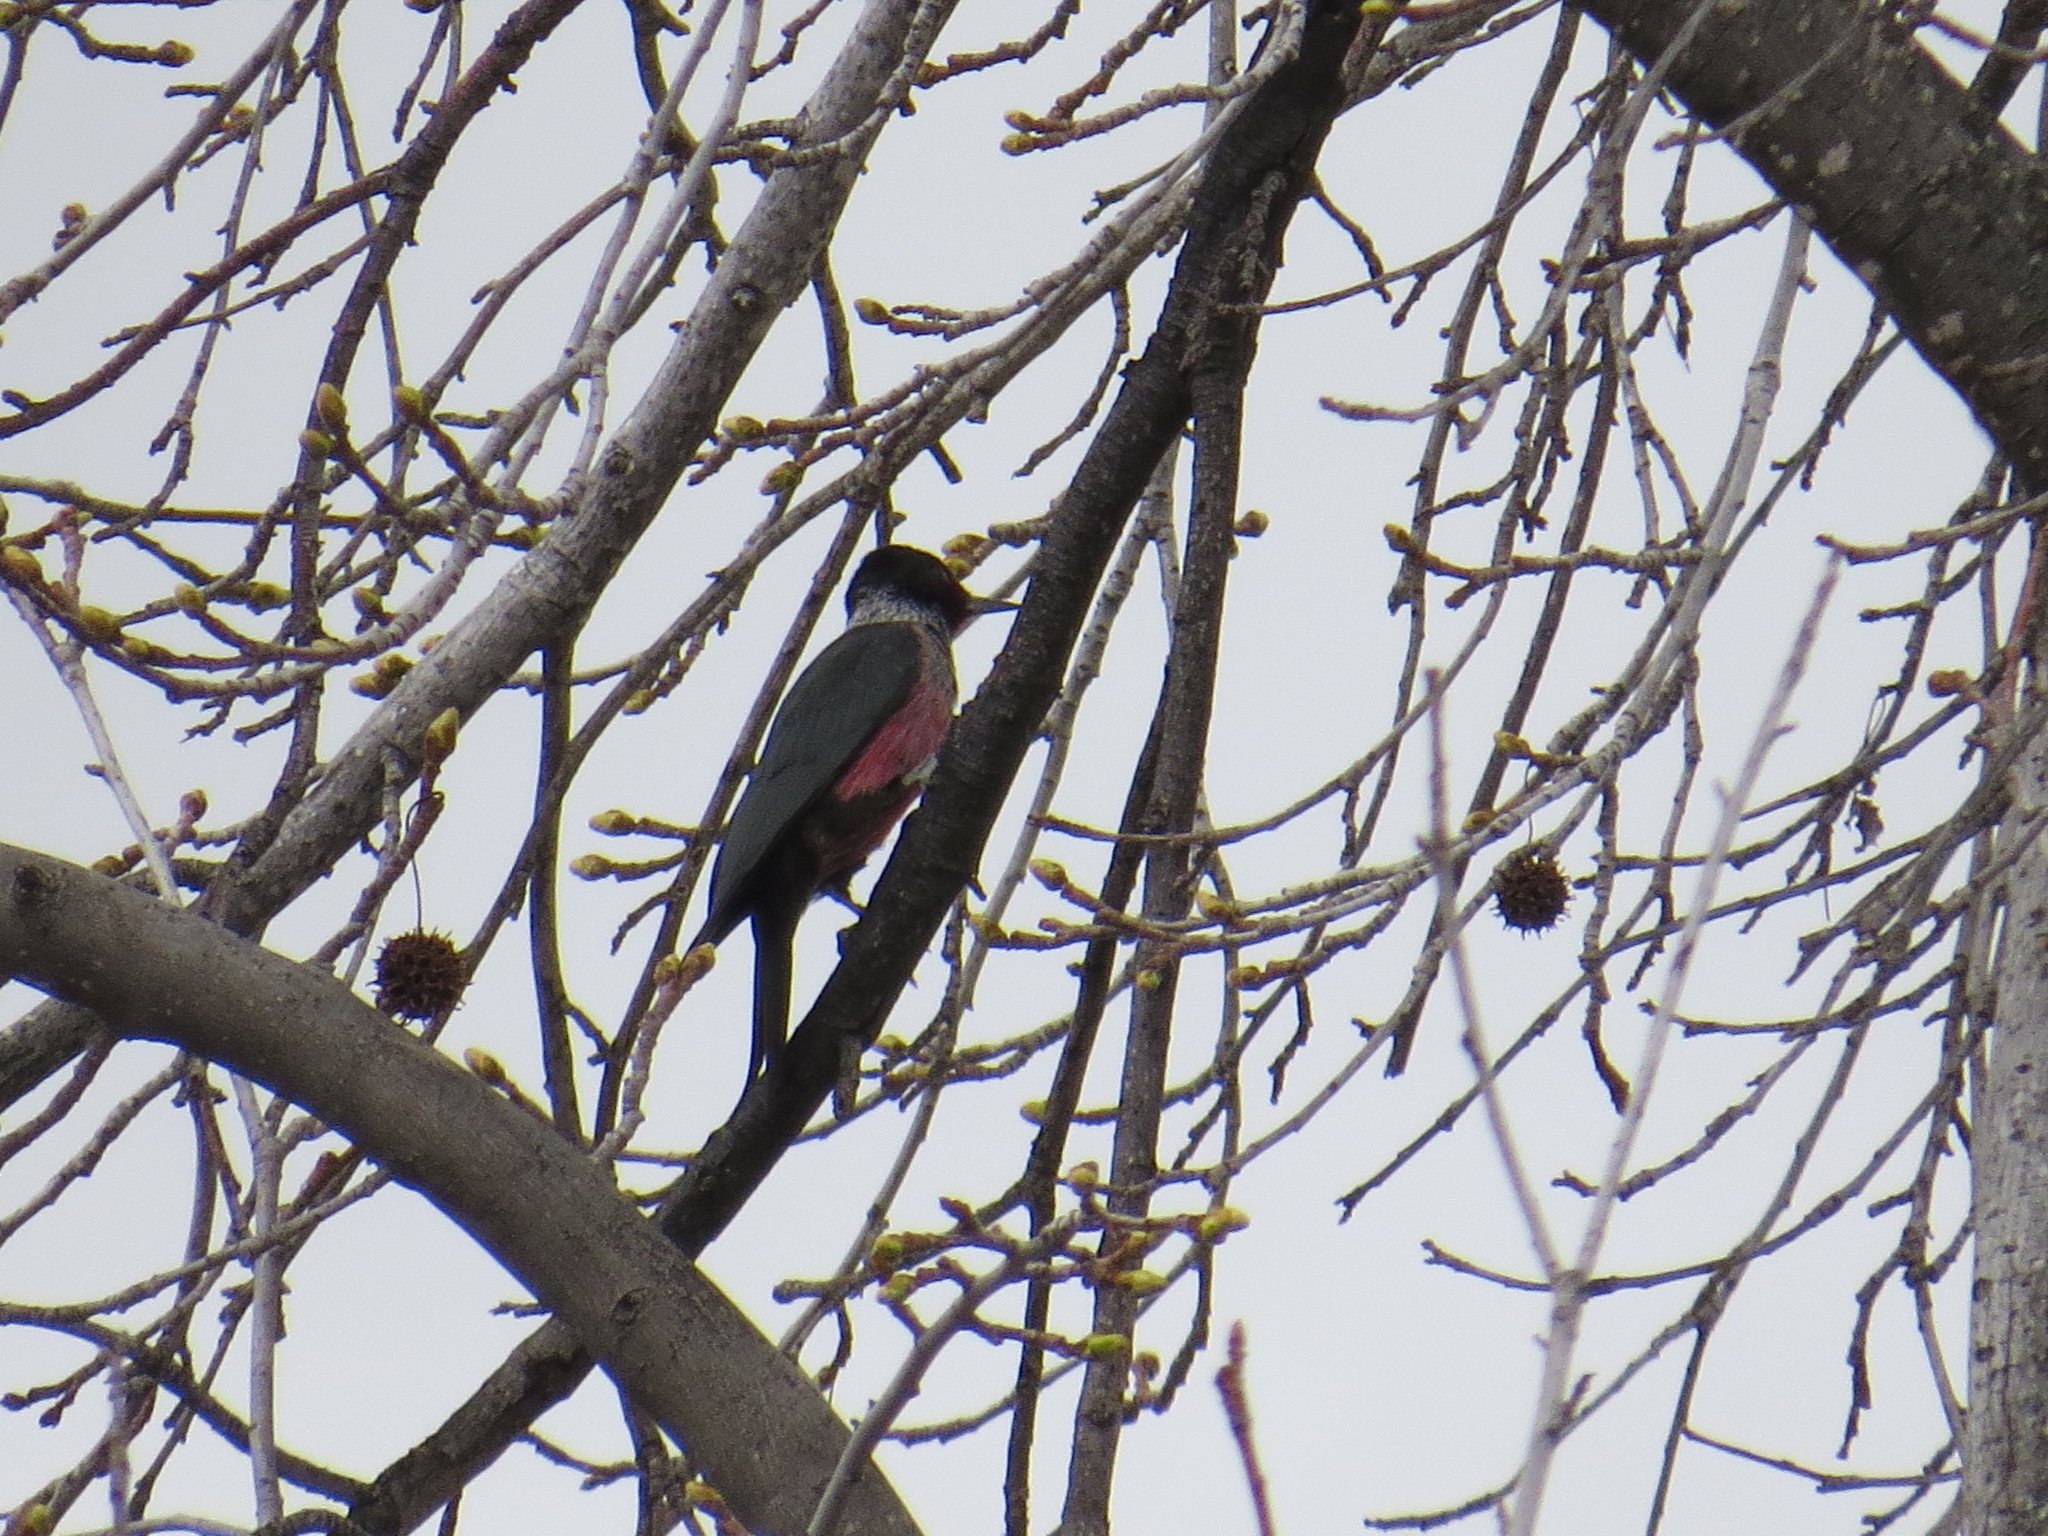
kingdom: Animalia
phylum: Chordata
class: Aves
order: Piciformes
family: Picidae
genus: Melanerpes
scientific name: Melanerpes lewis
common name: Lewis's woodpecker
